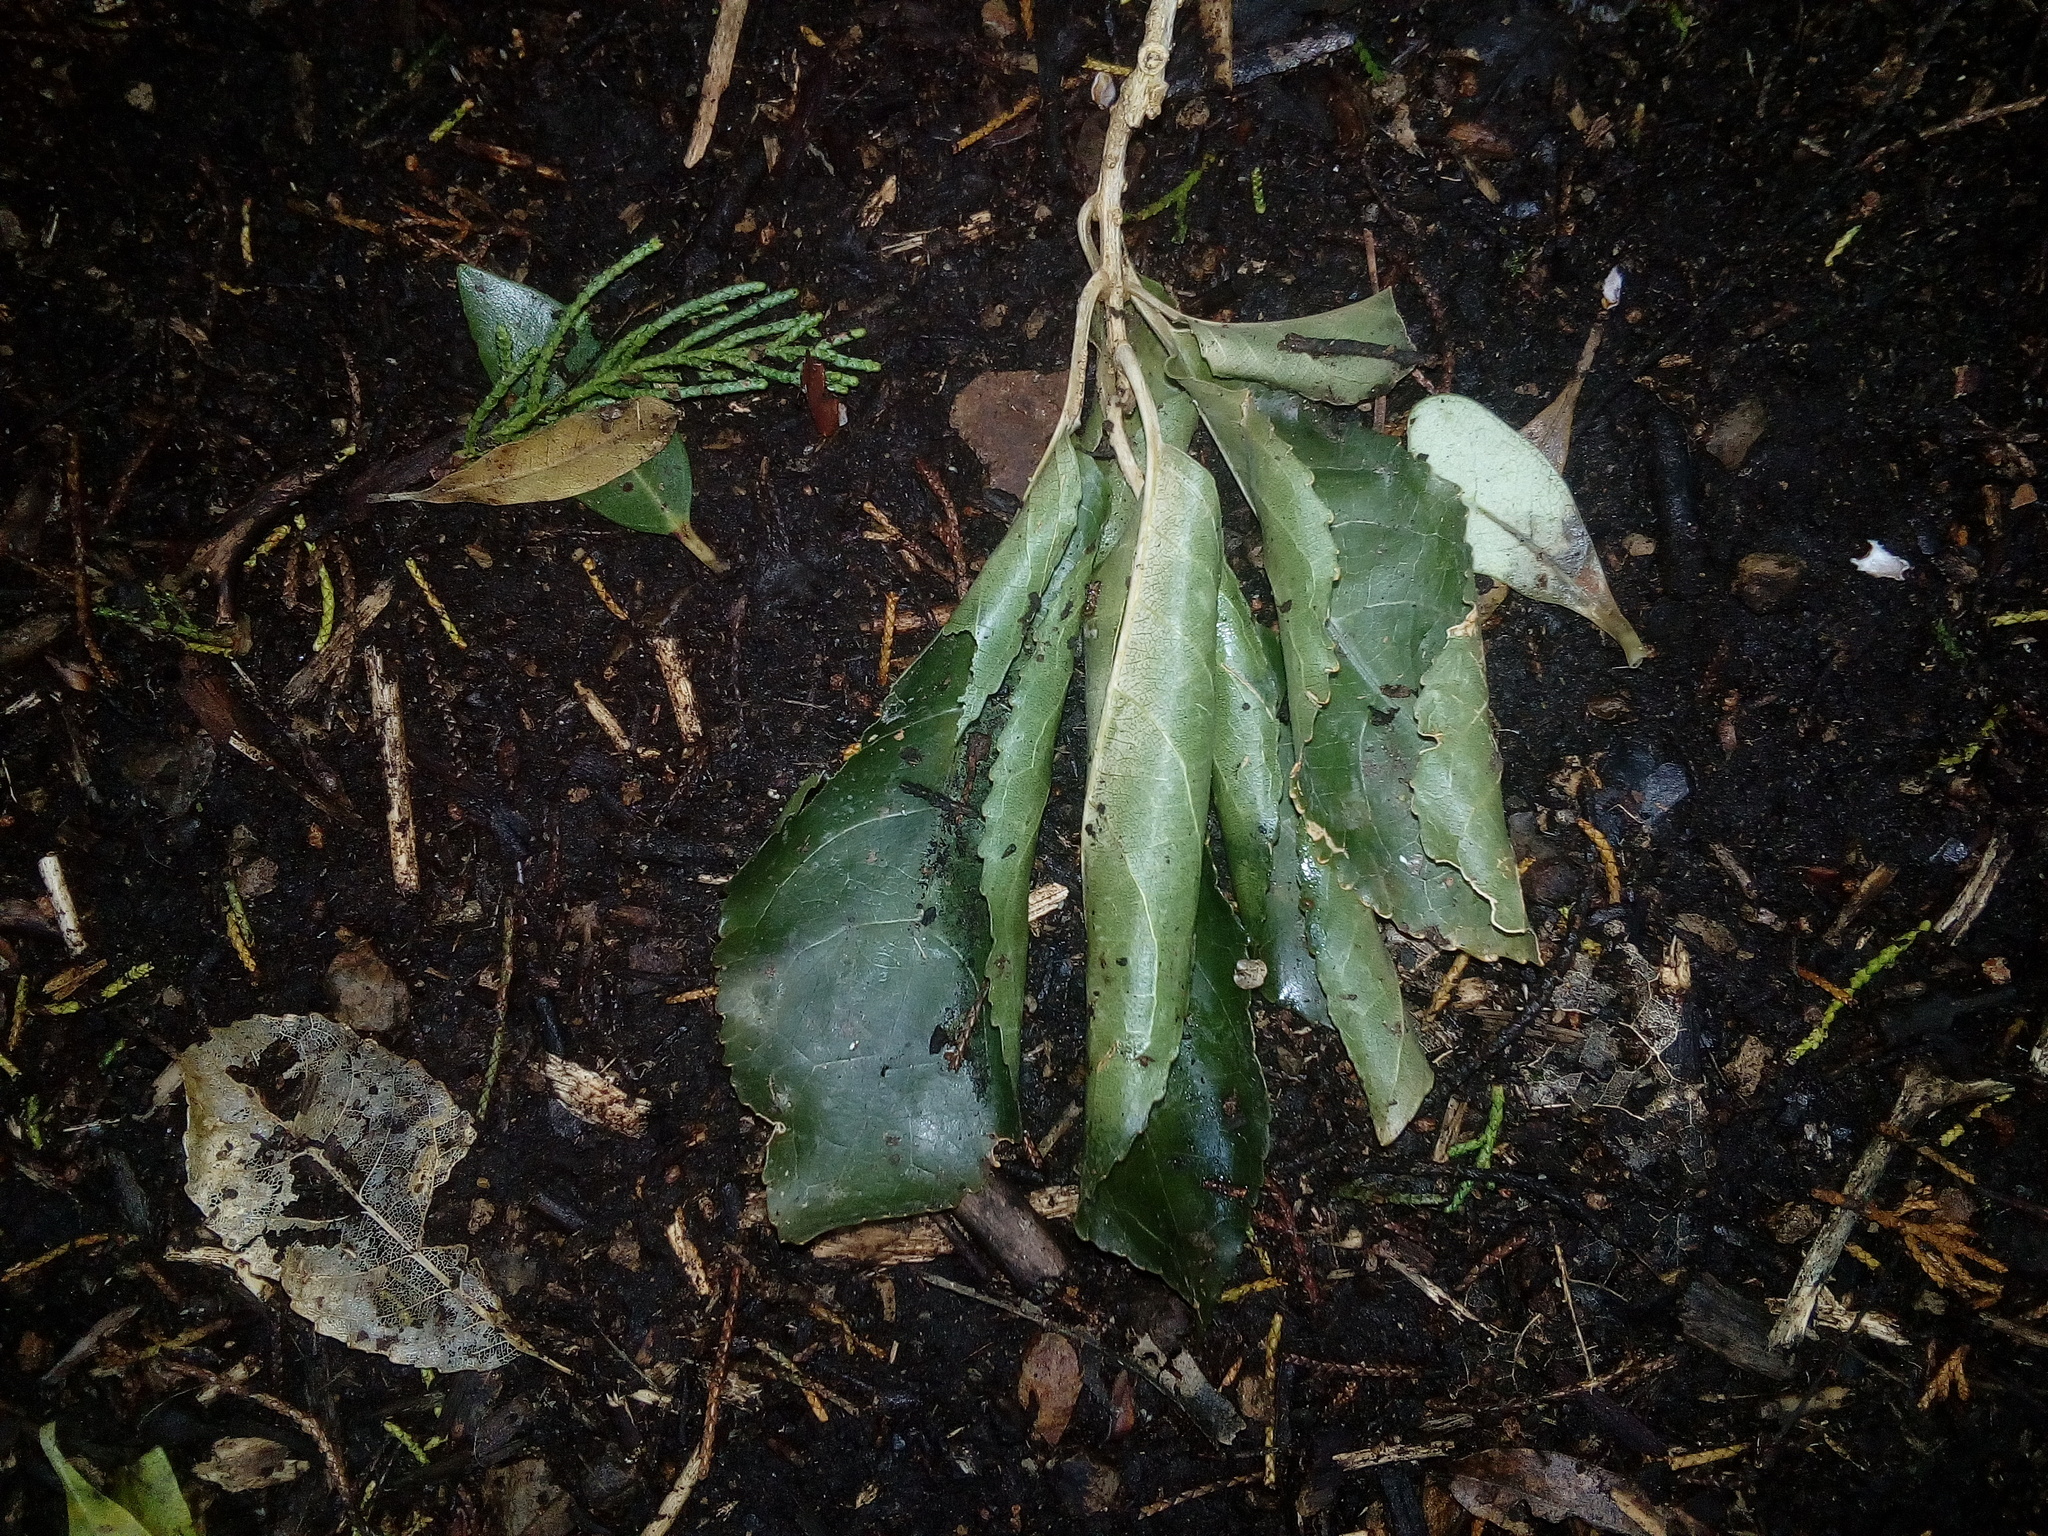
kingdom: Plantae
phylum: Tracheophyta
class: Magnoliopsida
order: Malpighiales
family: Violaceae
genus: Melicytus
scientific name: Melicytus ramiflorus
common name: Mahoe
